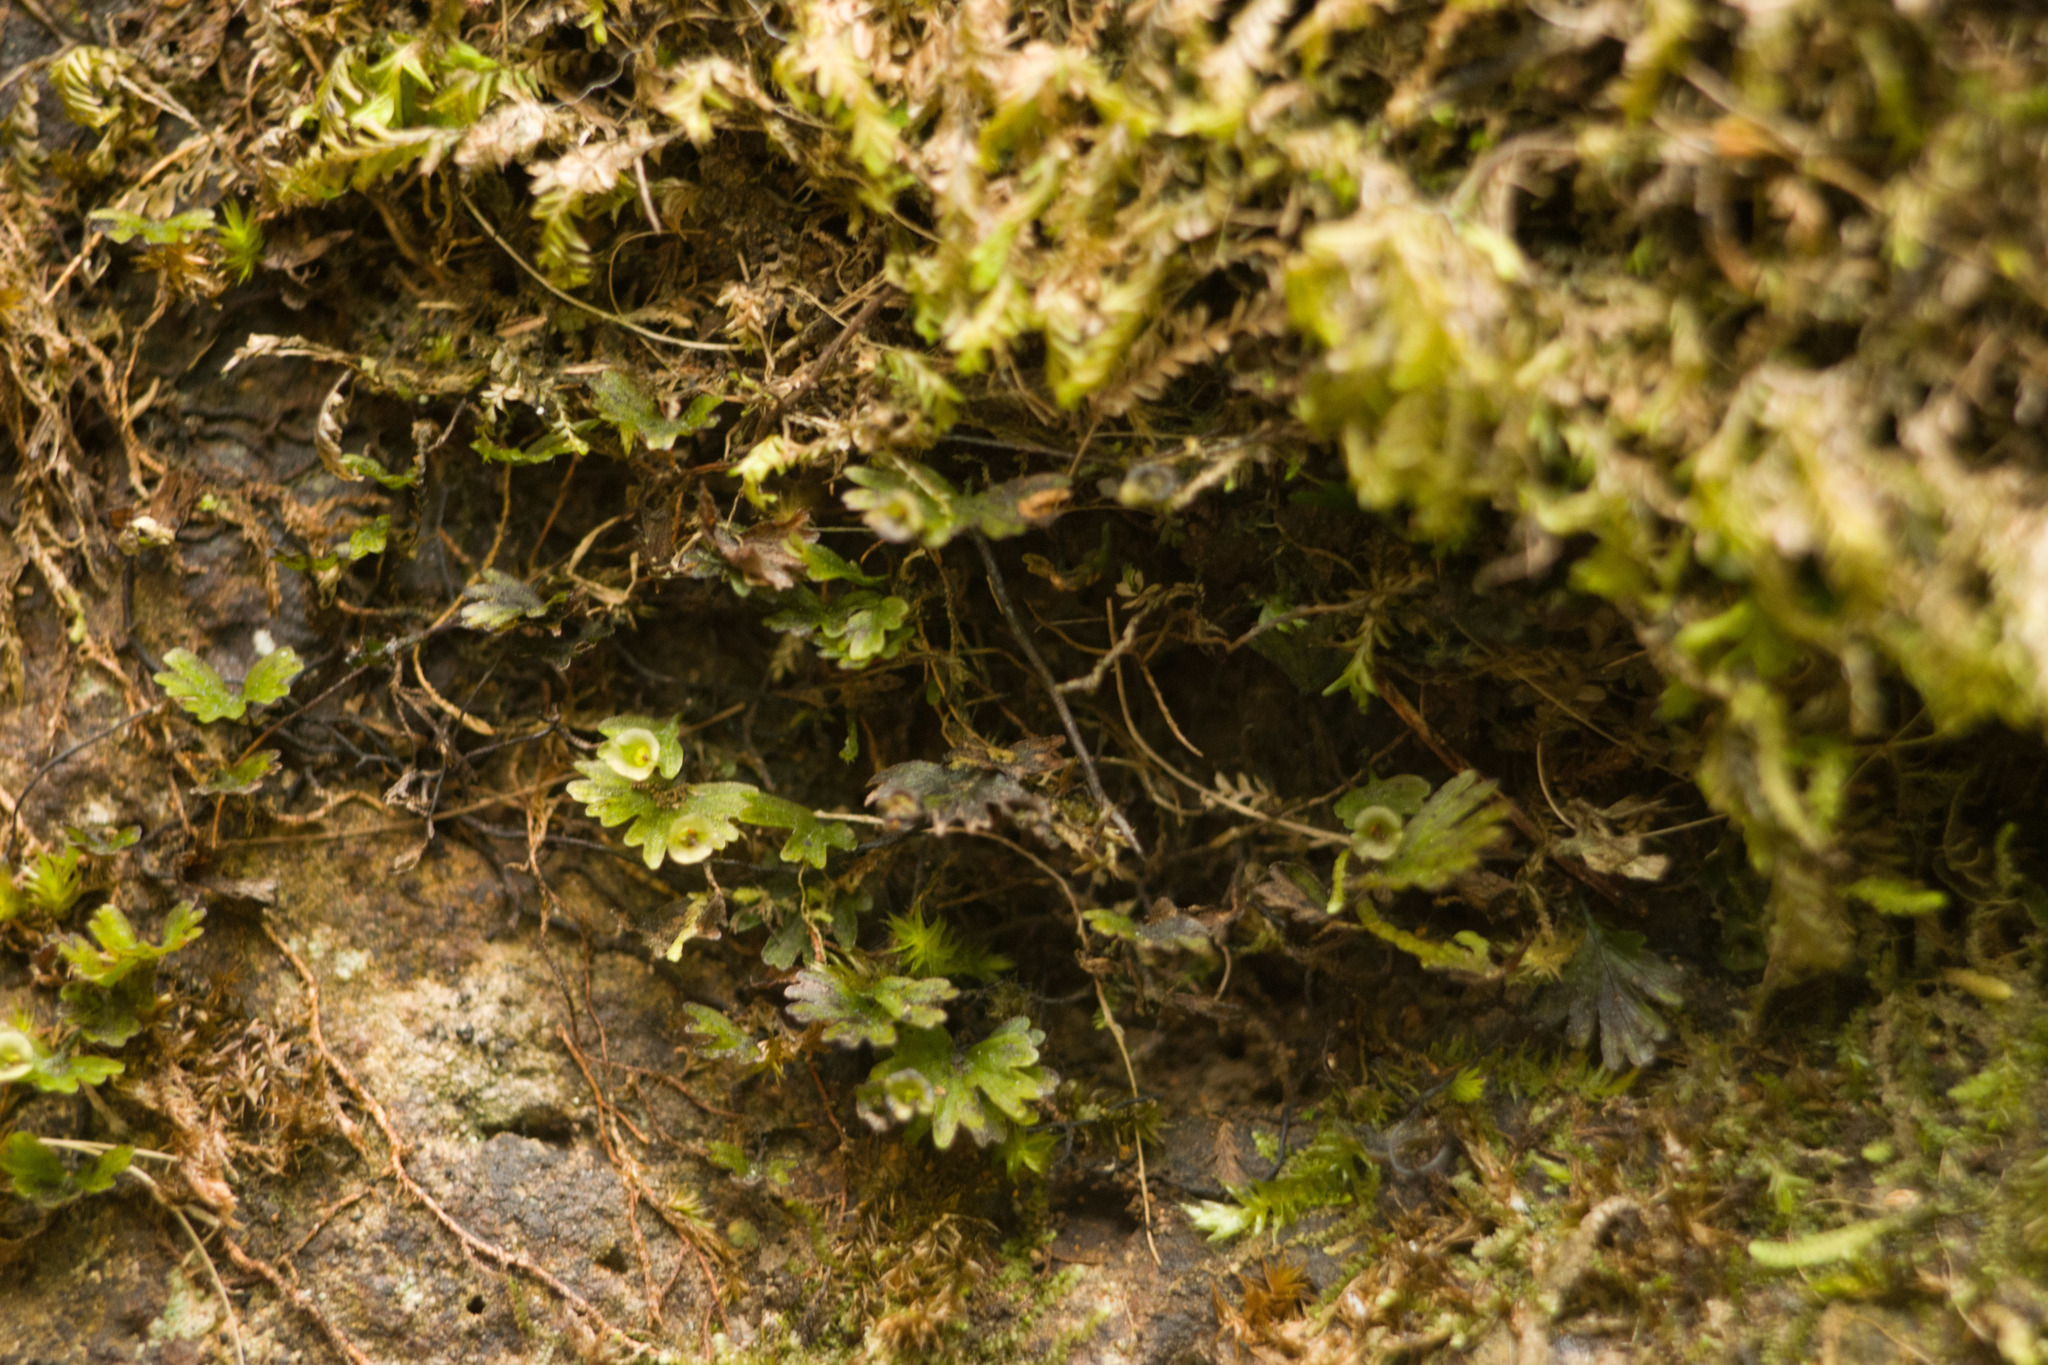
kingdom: Plantae
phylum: Tracheophyta
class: Polypodiopsida
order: Hymenophyllales
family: Hymenophyllaceae
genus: Crepidomanes
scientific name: Crepidomanes parvulum
